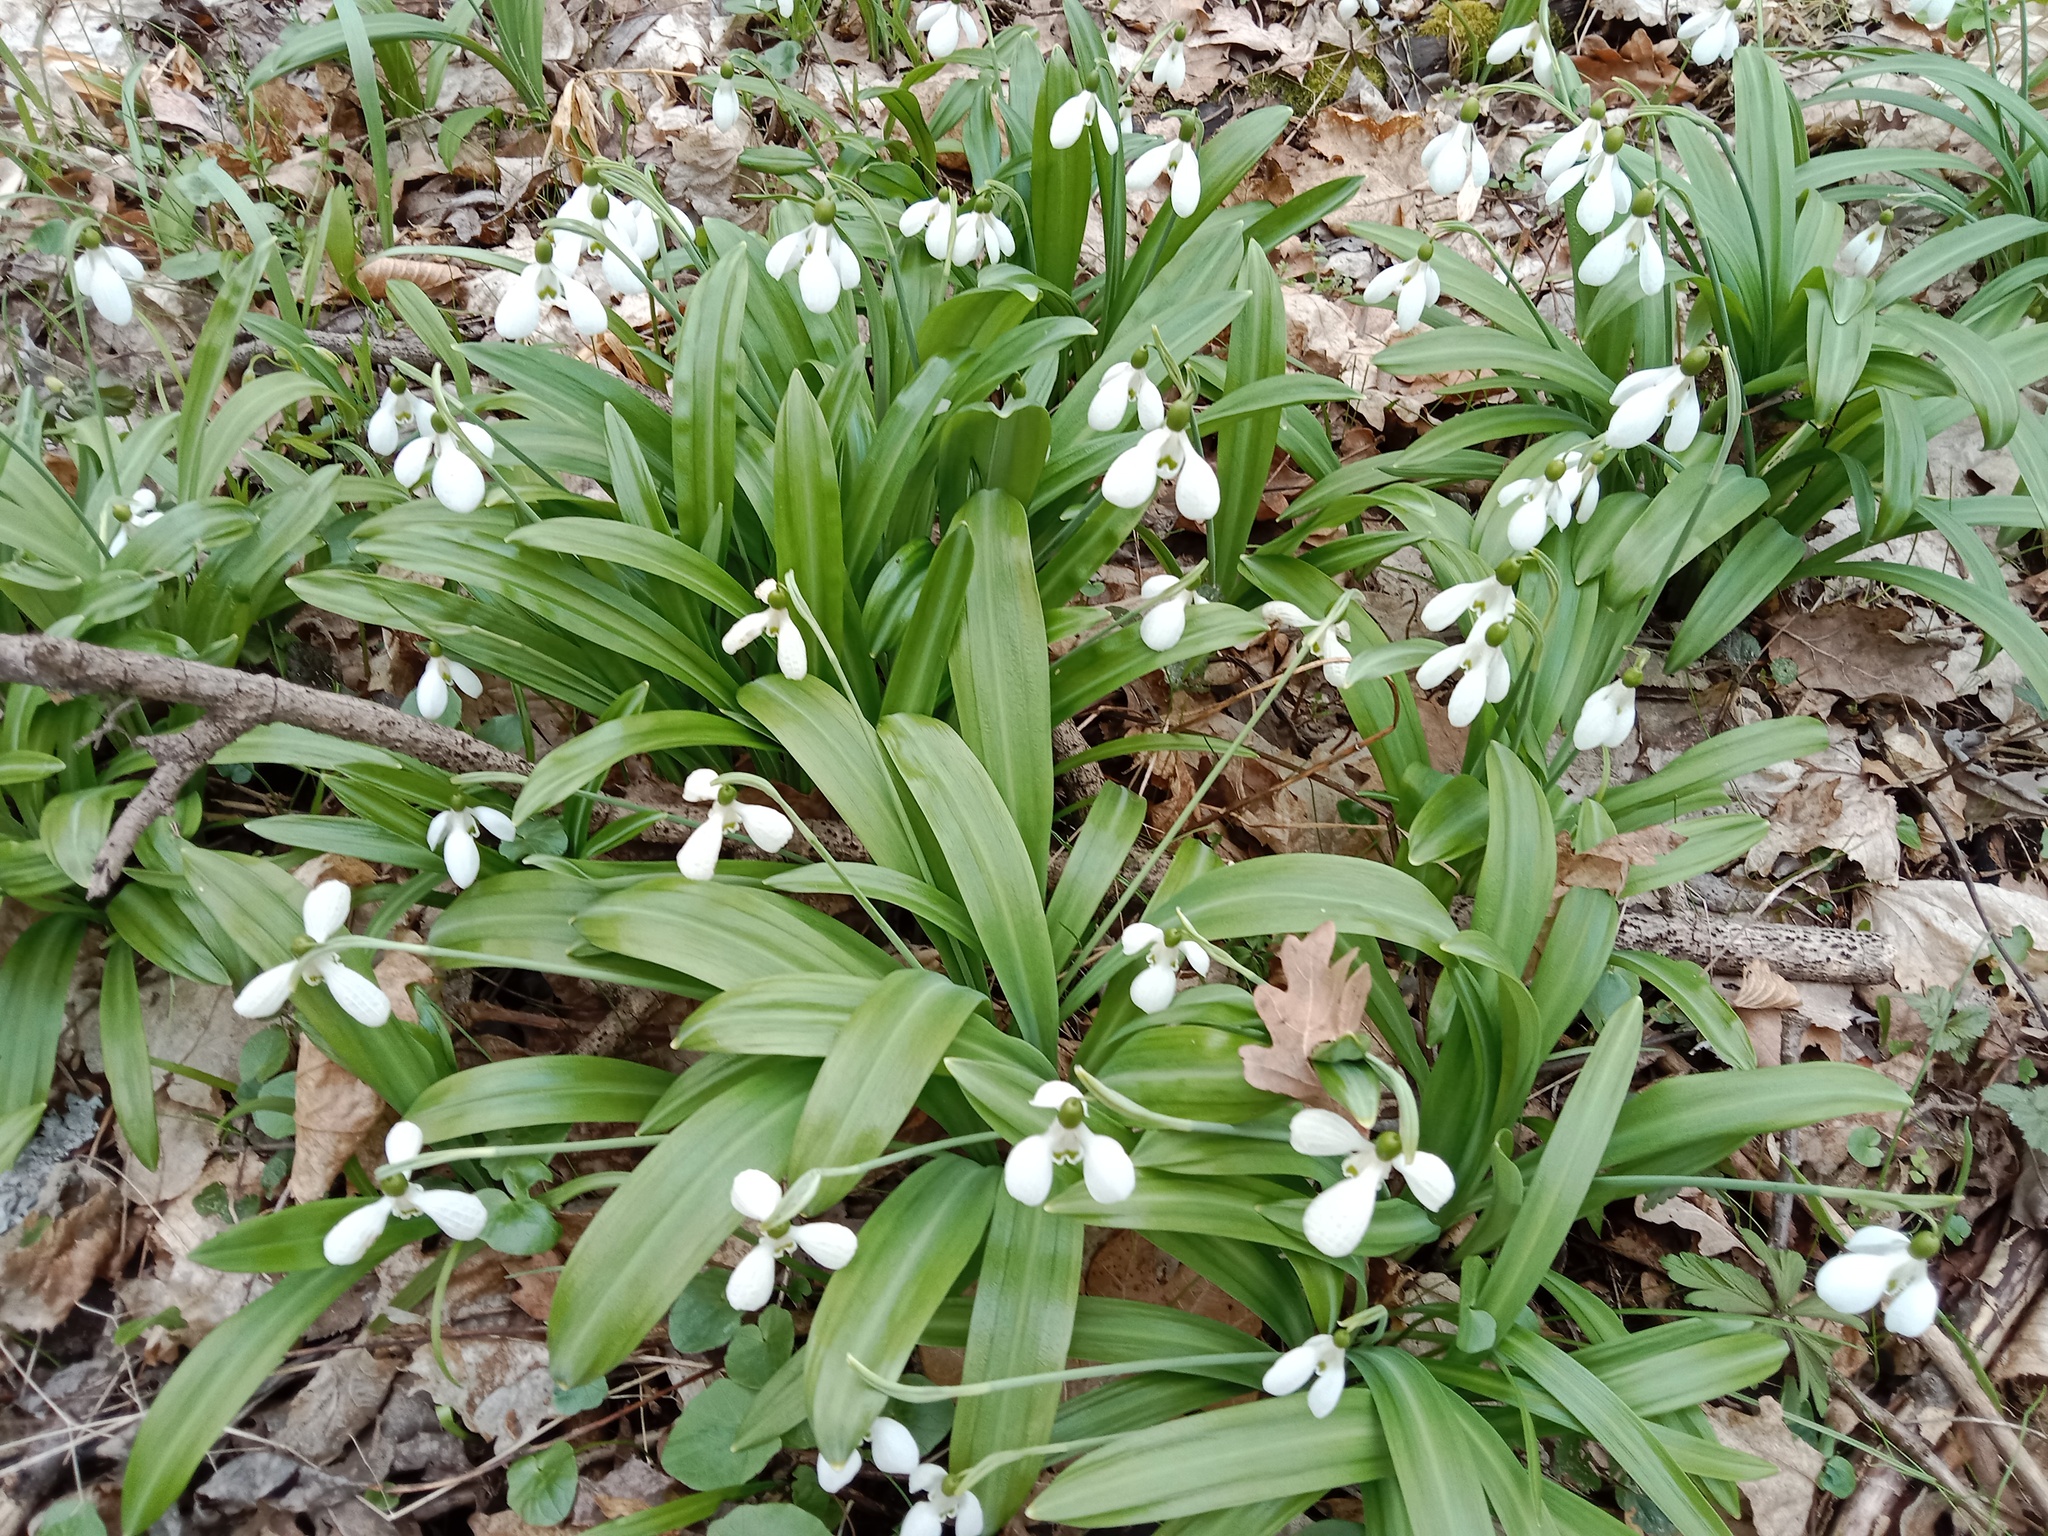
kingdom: Plantae
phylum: Tracheophyta
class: Liliopsida
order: Asparagales
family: Amaryllidaceae
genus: Galanthus
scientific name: Galanthus plicatus
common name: Pleated snowdrop
